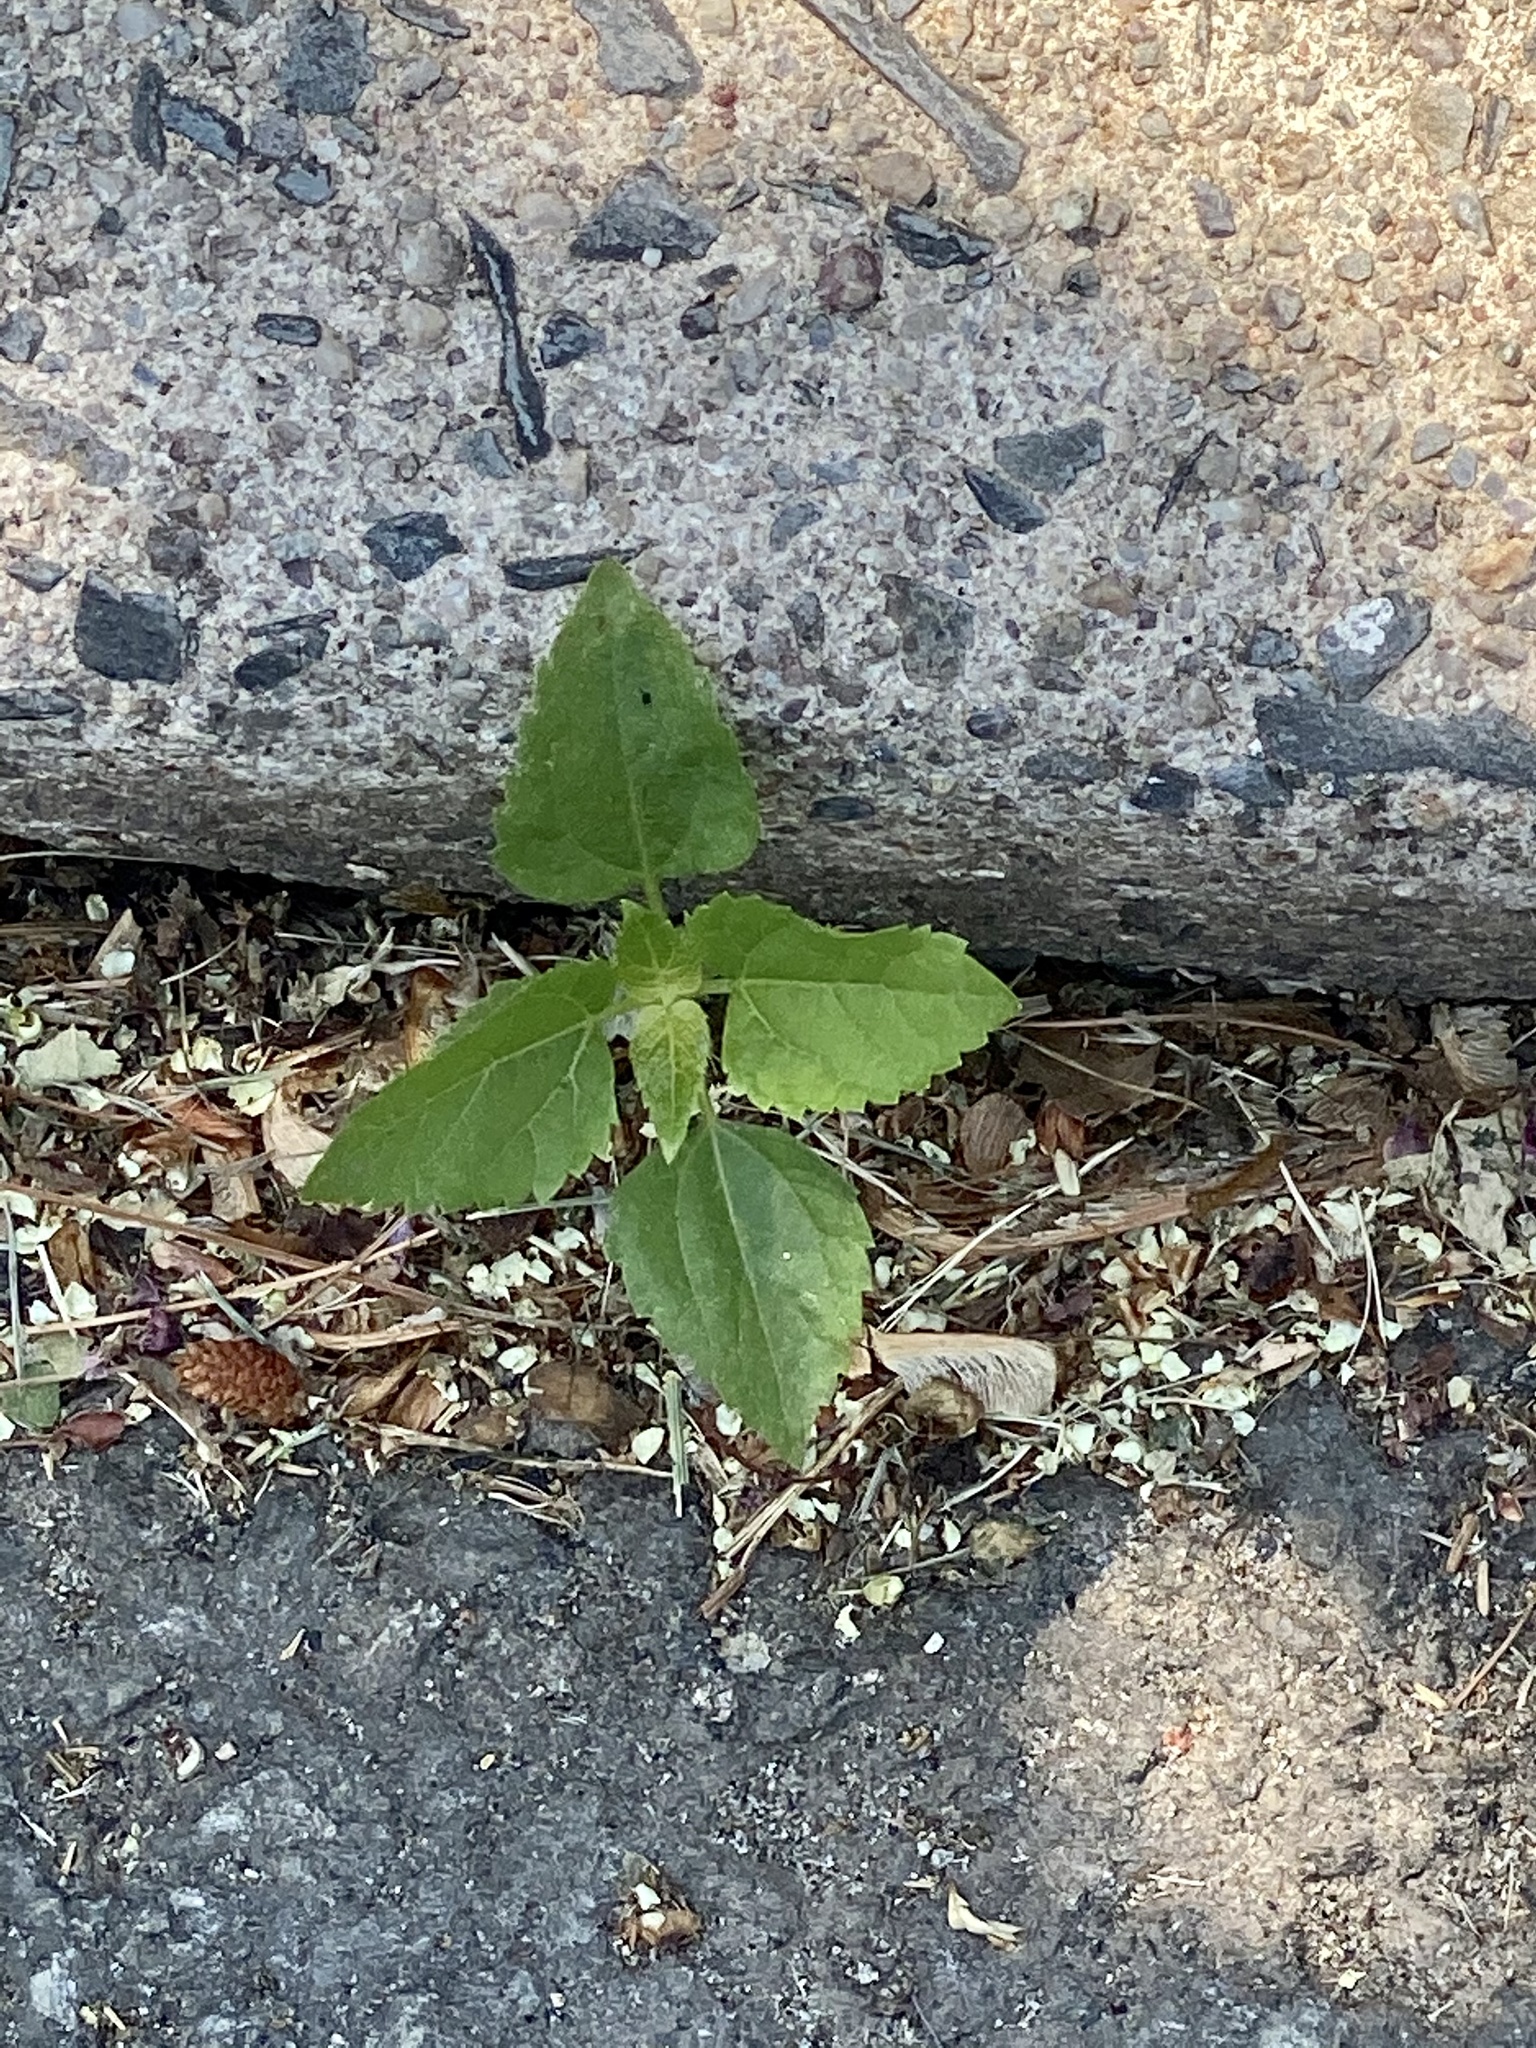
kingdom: Plantae
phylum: Tracheophyta
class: Magnoliopsida
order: Asterales
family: Asteraceae
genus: Ageratina
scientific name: Ageratina altissima
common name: White snakeroot
